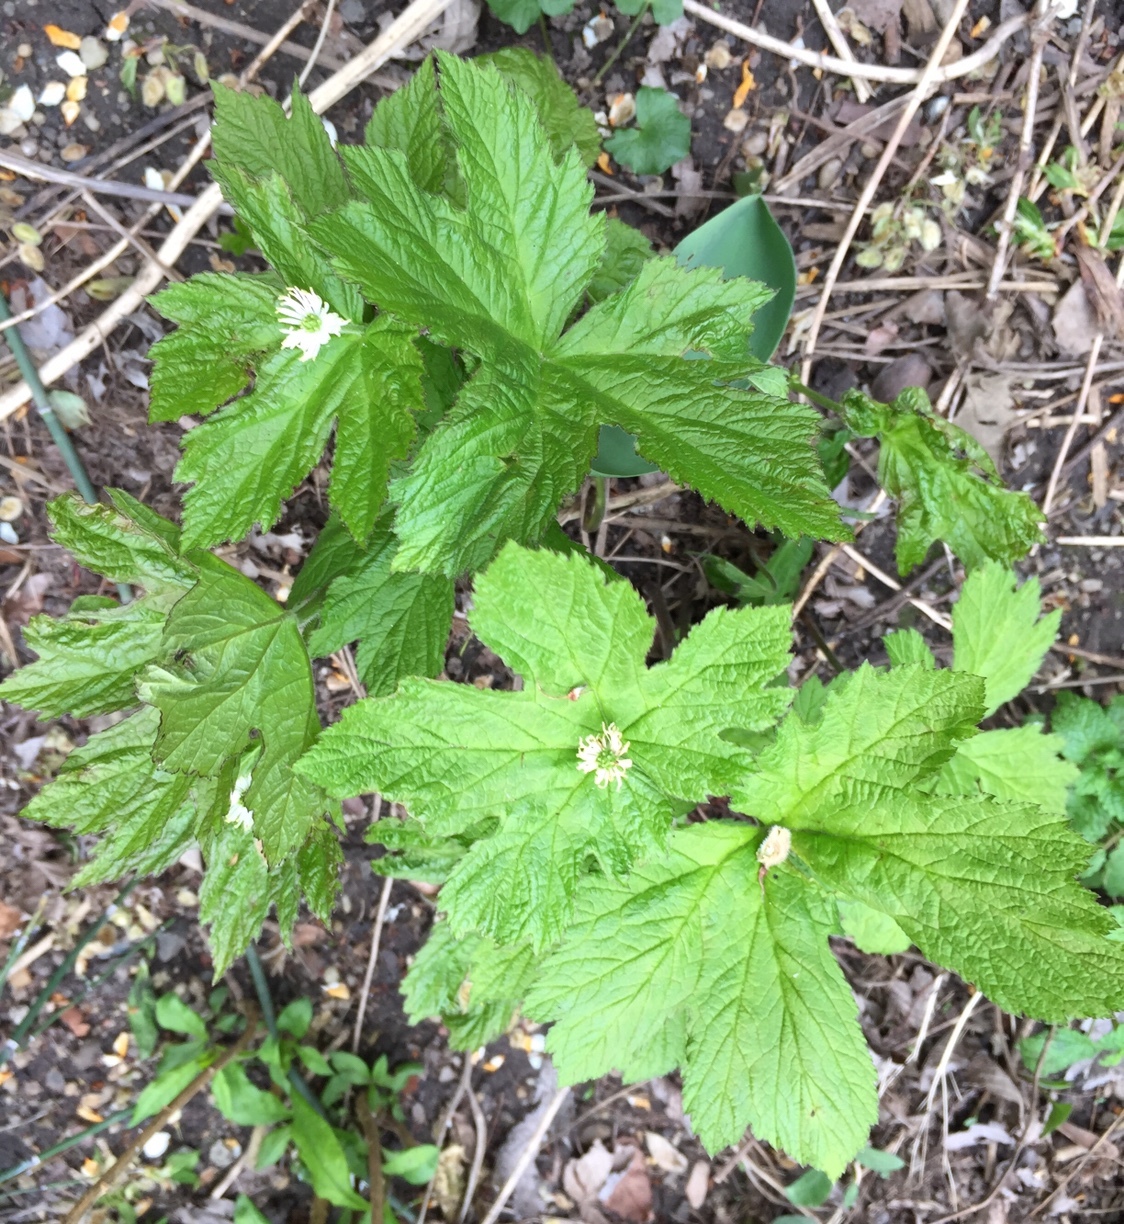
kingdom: Plantae
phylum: Tracheophyta
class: Magnoliopsida
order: Ranunculales
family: Ranunculaceae
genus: Hydrastis
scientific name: Hydrastis canadensis
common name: Goldenseal
